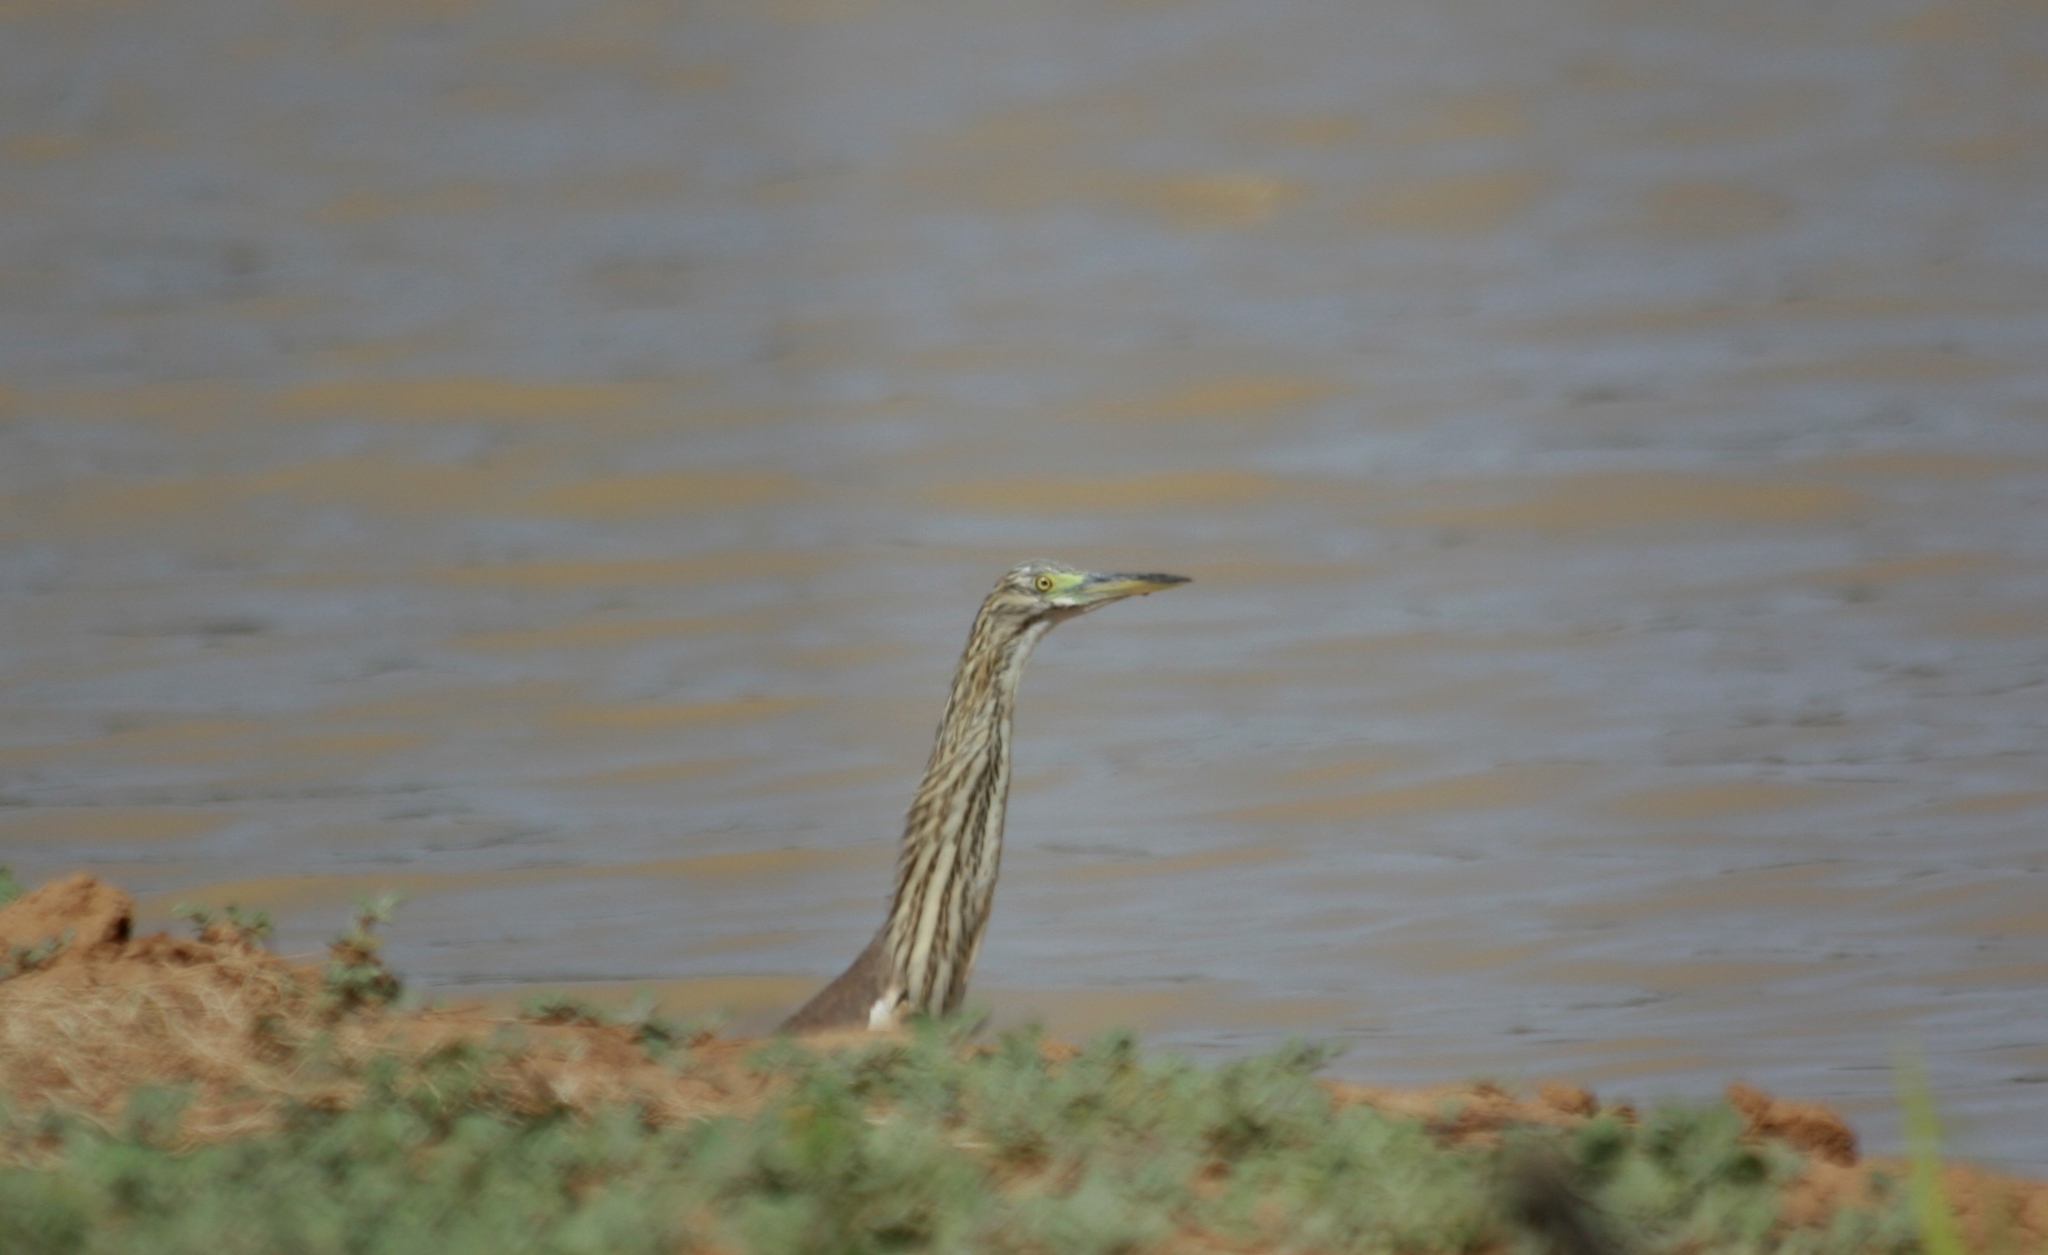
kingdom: Animalia
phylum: Chordata
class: Aves
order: Pelecaniformes
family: Ardeidae
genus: Ardeola
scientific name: Ardeola ralloides
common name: Squacco heron
